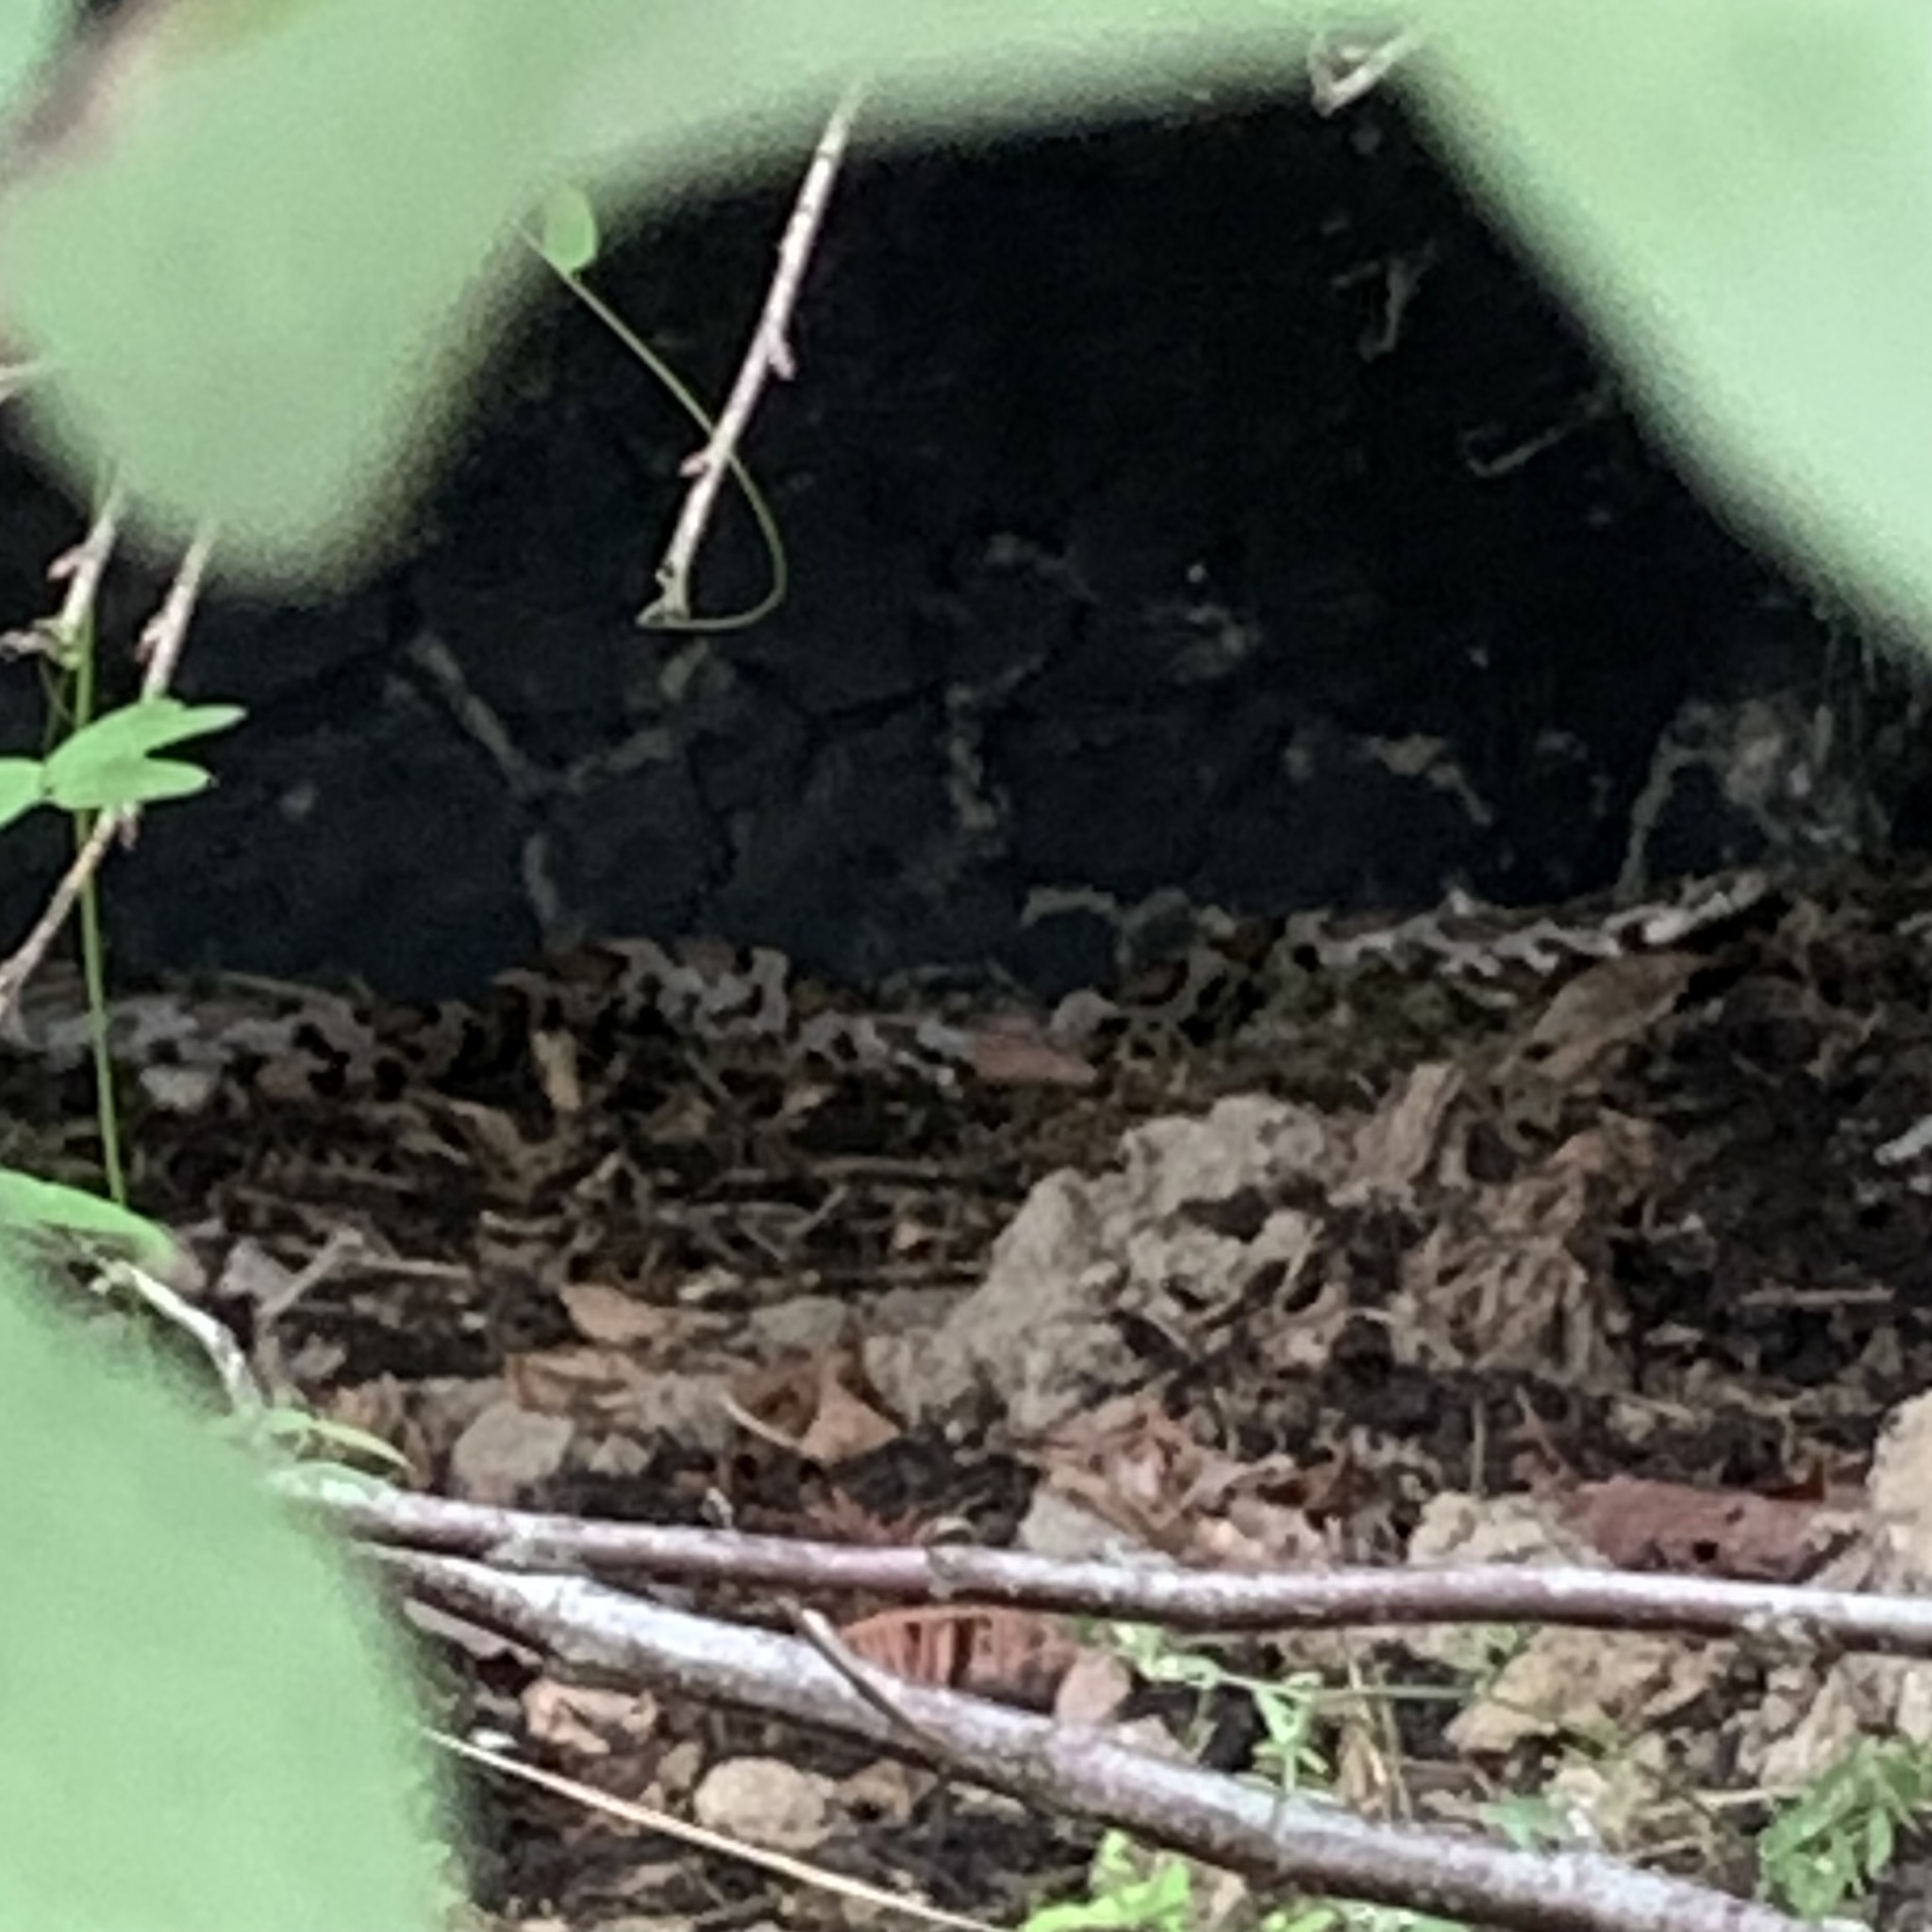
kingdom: Animalia
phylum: Chordata
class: Squamata
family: Colubridae
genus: Lampropeltis
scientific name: Lampropeltis triangulum
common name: Eastern milksnake
